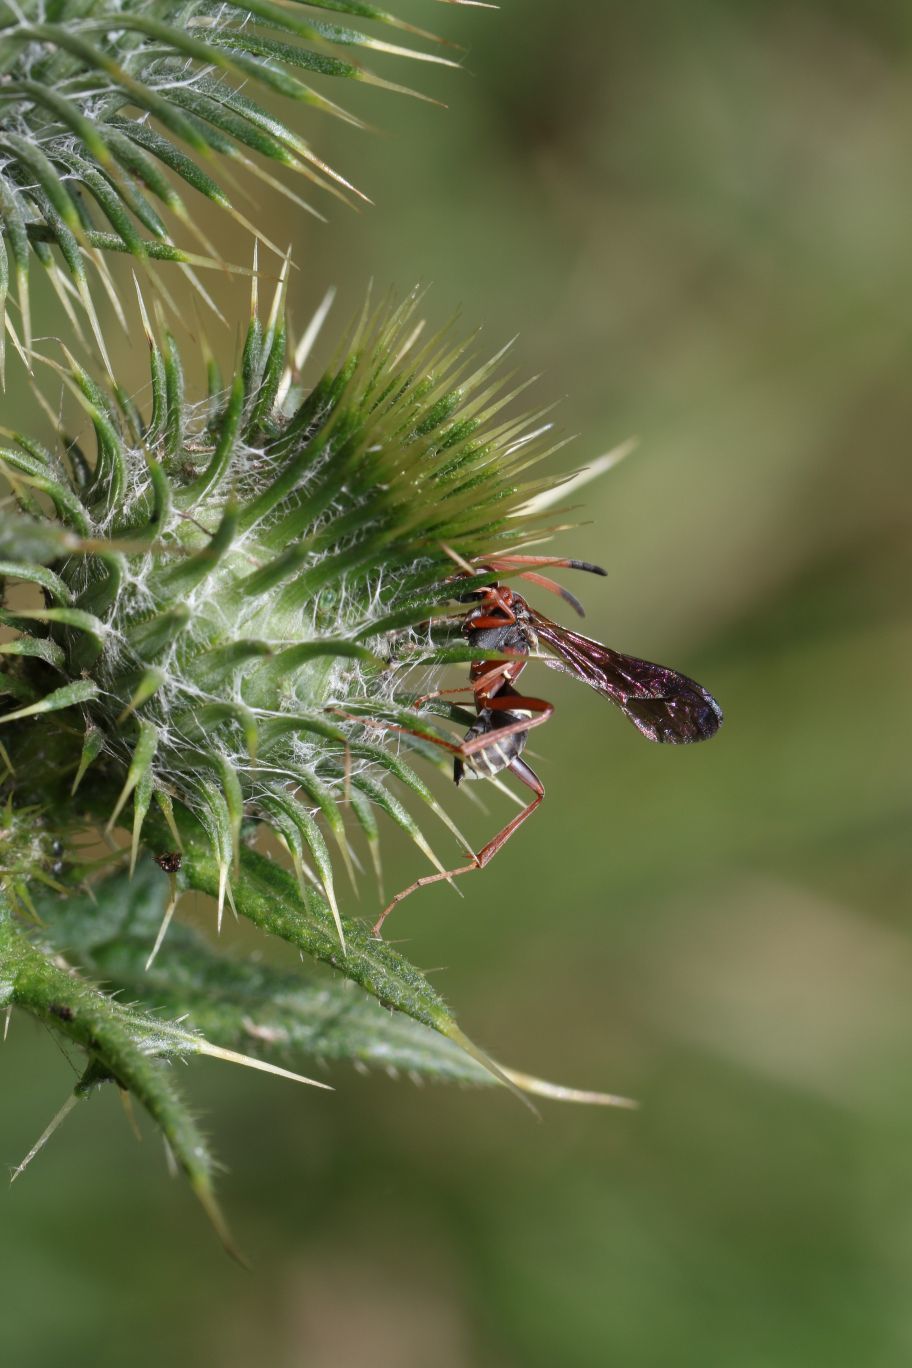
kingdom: Plantae
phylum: Tracheophyta
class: Magnoliopsida
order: Asterales
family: Asteraceae
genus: Cirsium
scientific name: Cirsium vulgare
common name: Bull thistle
